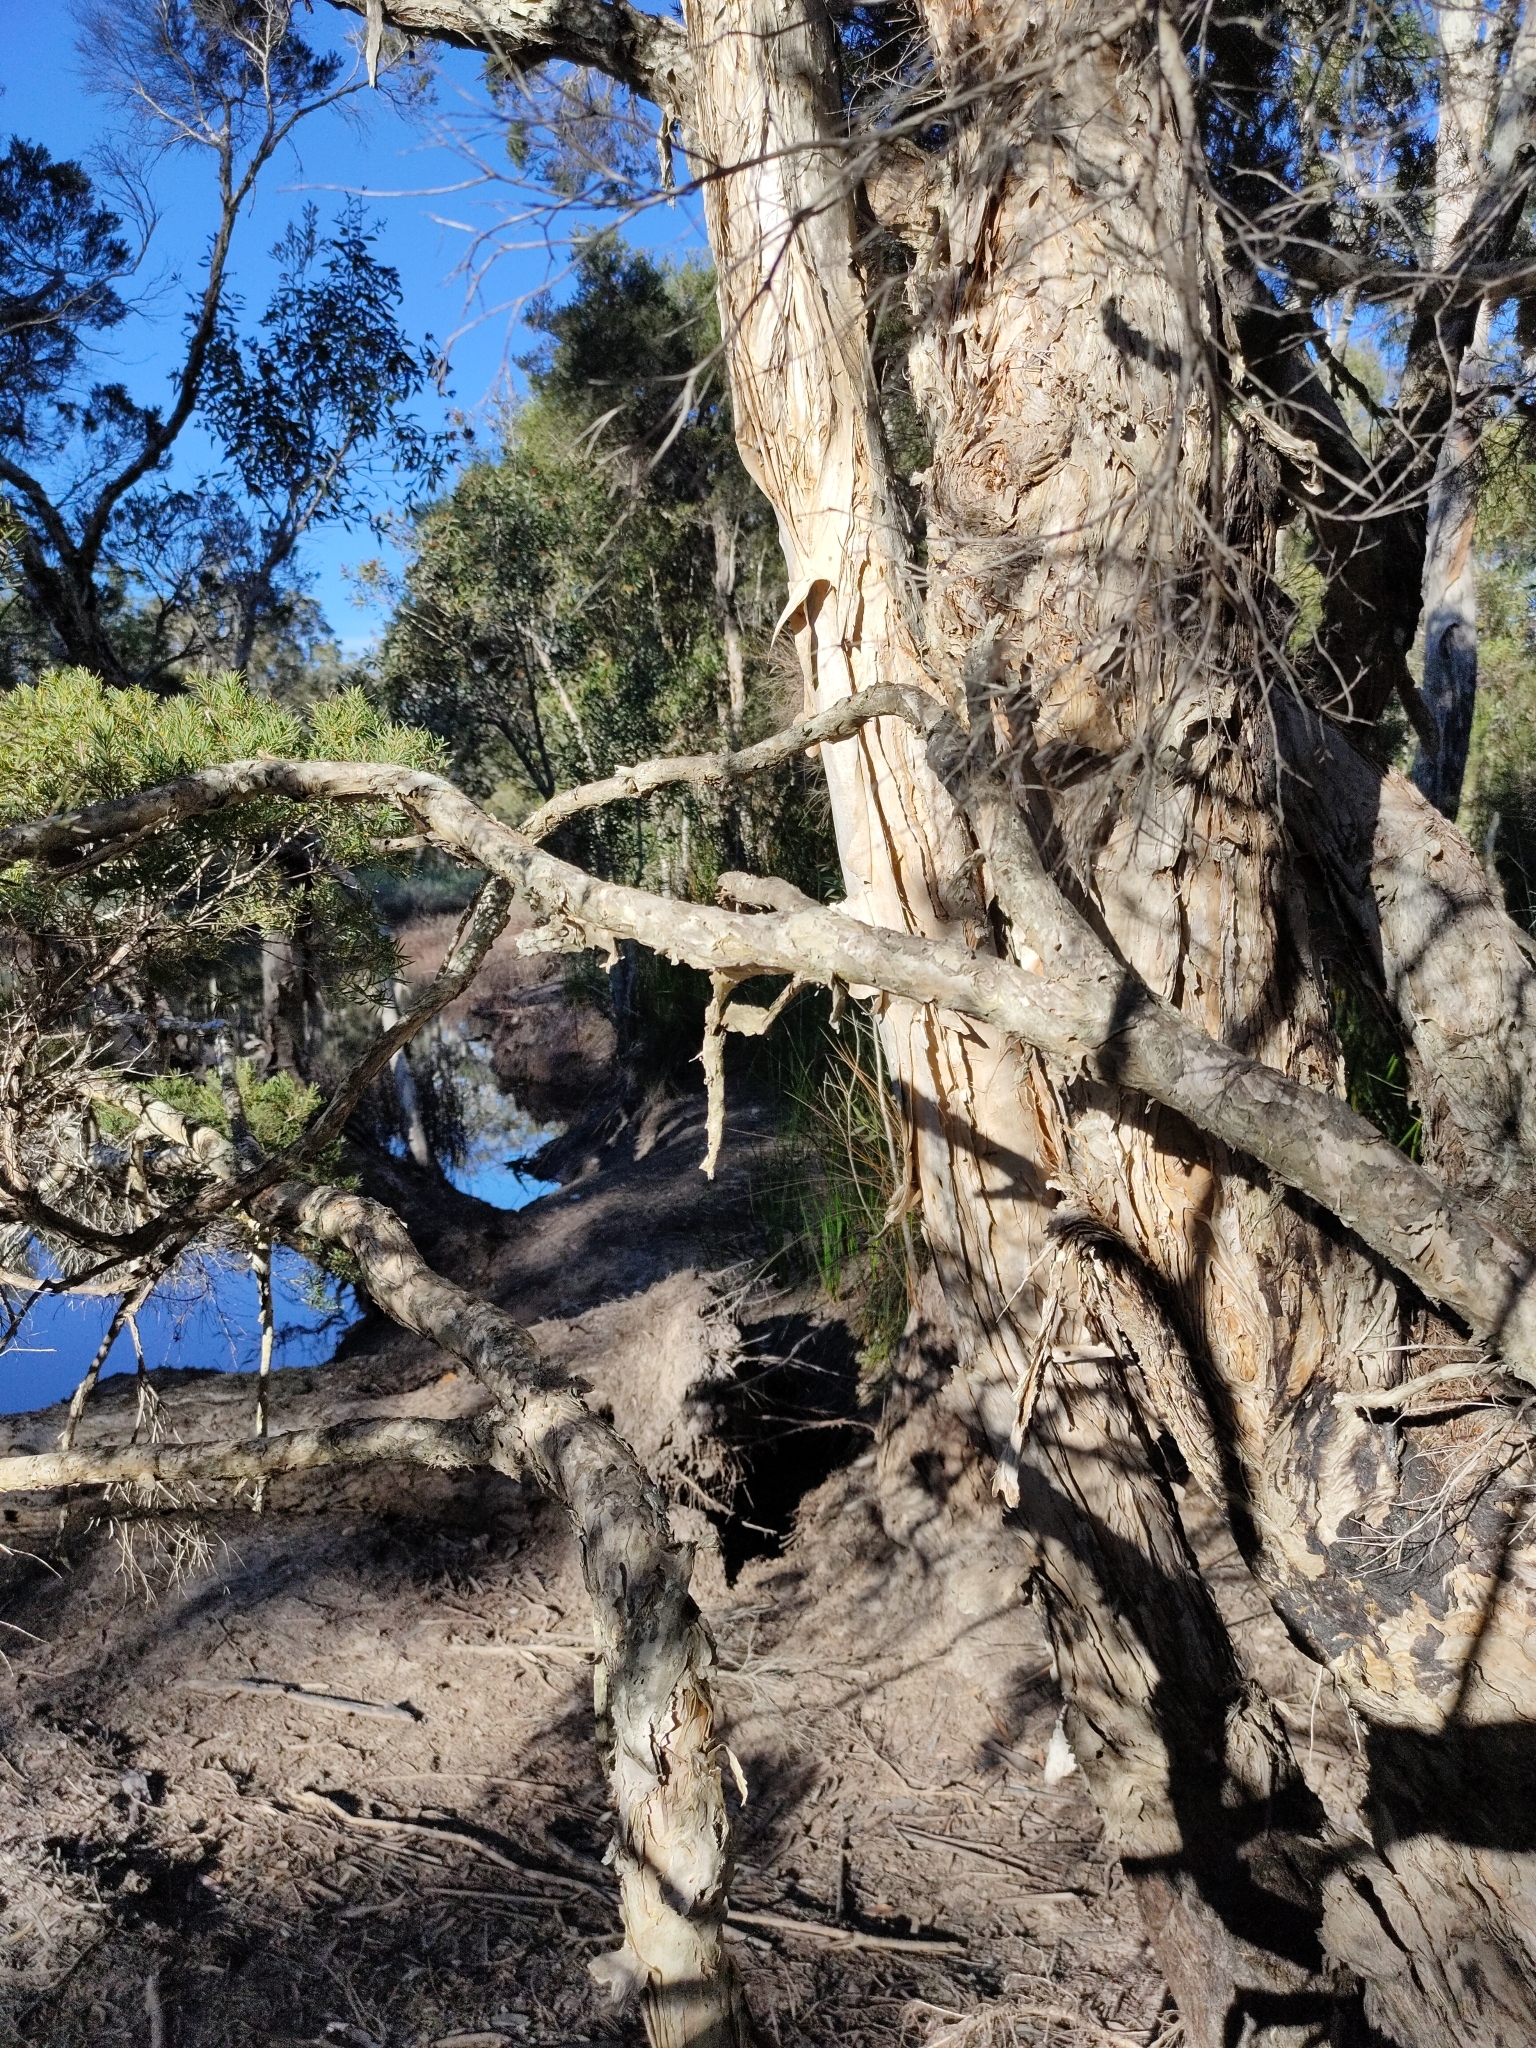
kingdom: Plantae
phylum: Tracheophyta
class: Magnoliopsida
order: Myrtales
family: Myrtaceae
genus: Melaleuca
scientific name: Melaleuca linariifolia
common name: Cajeput tree
